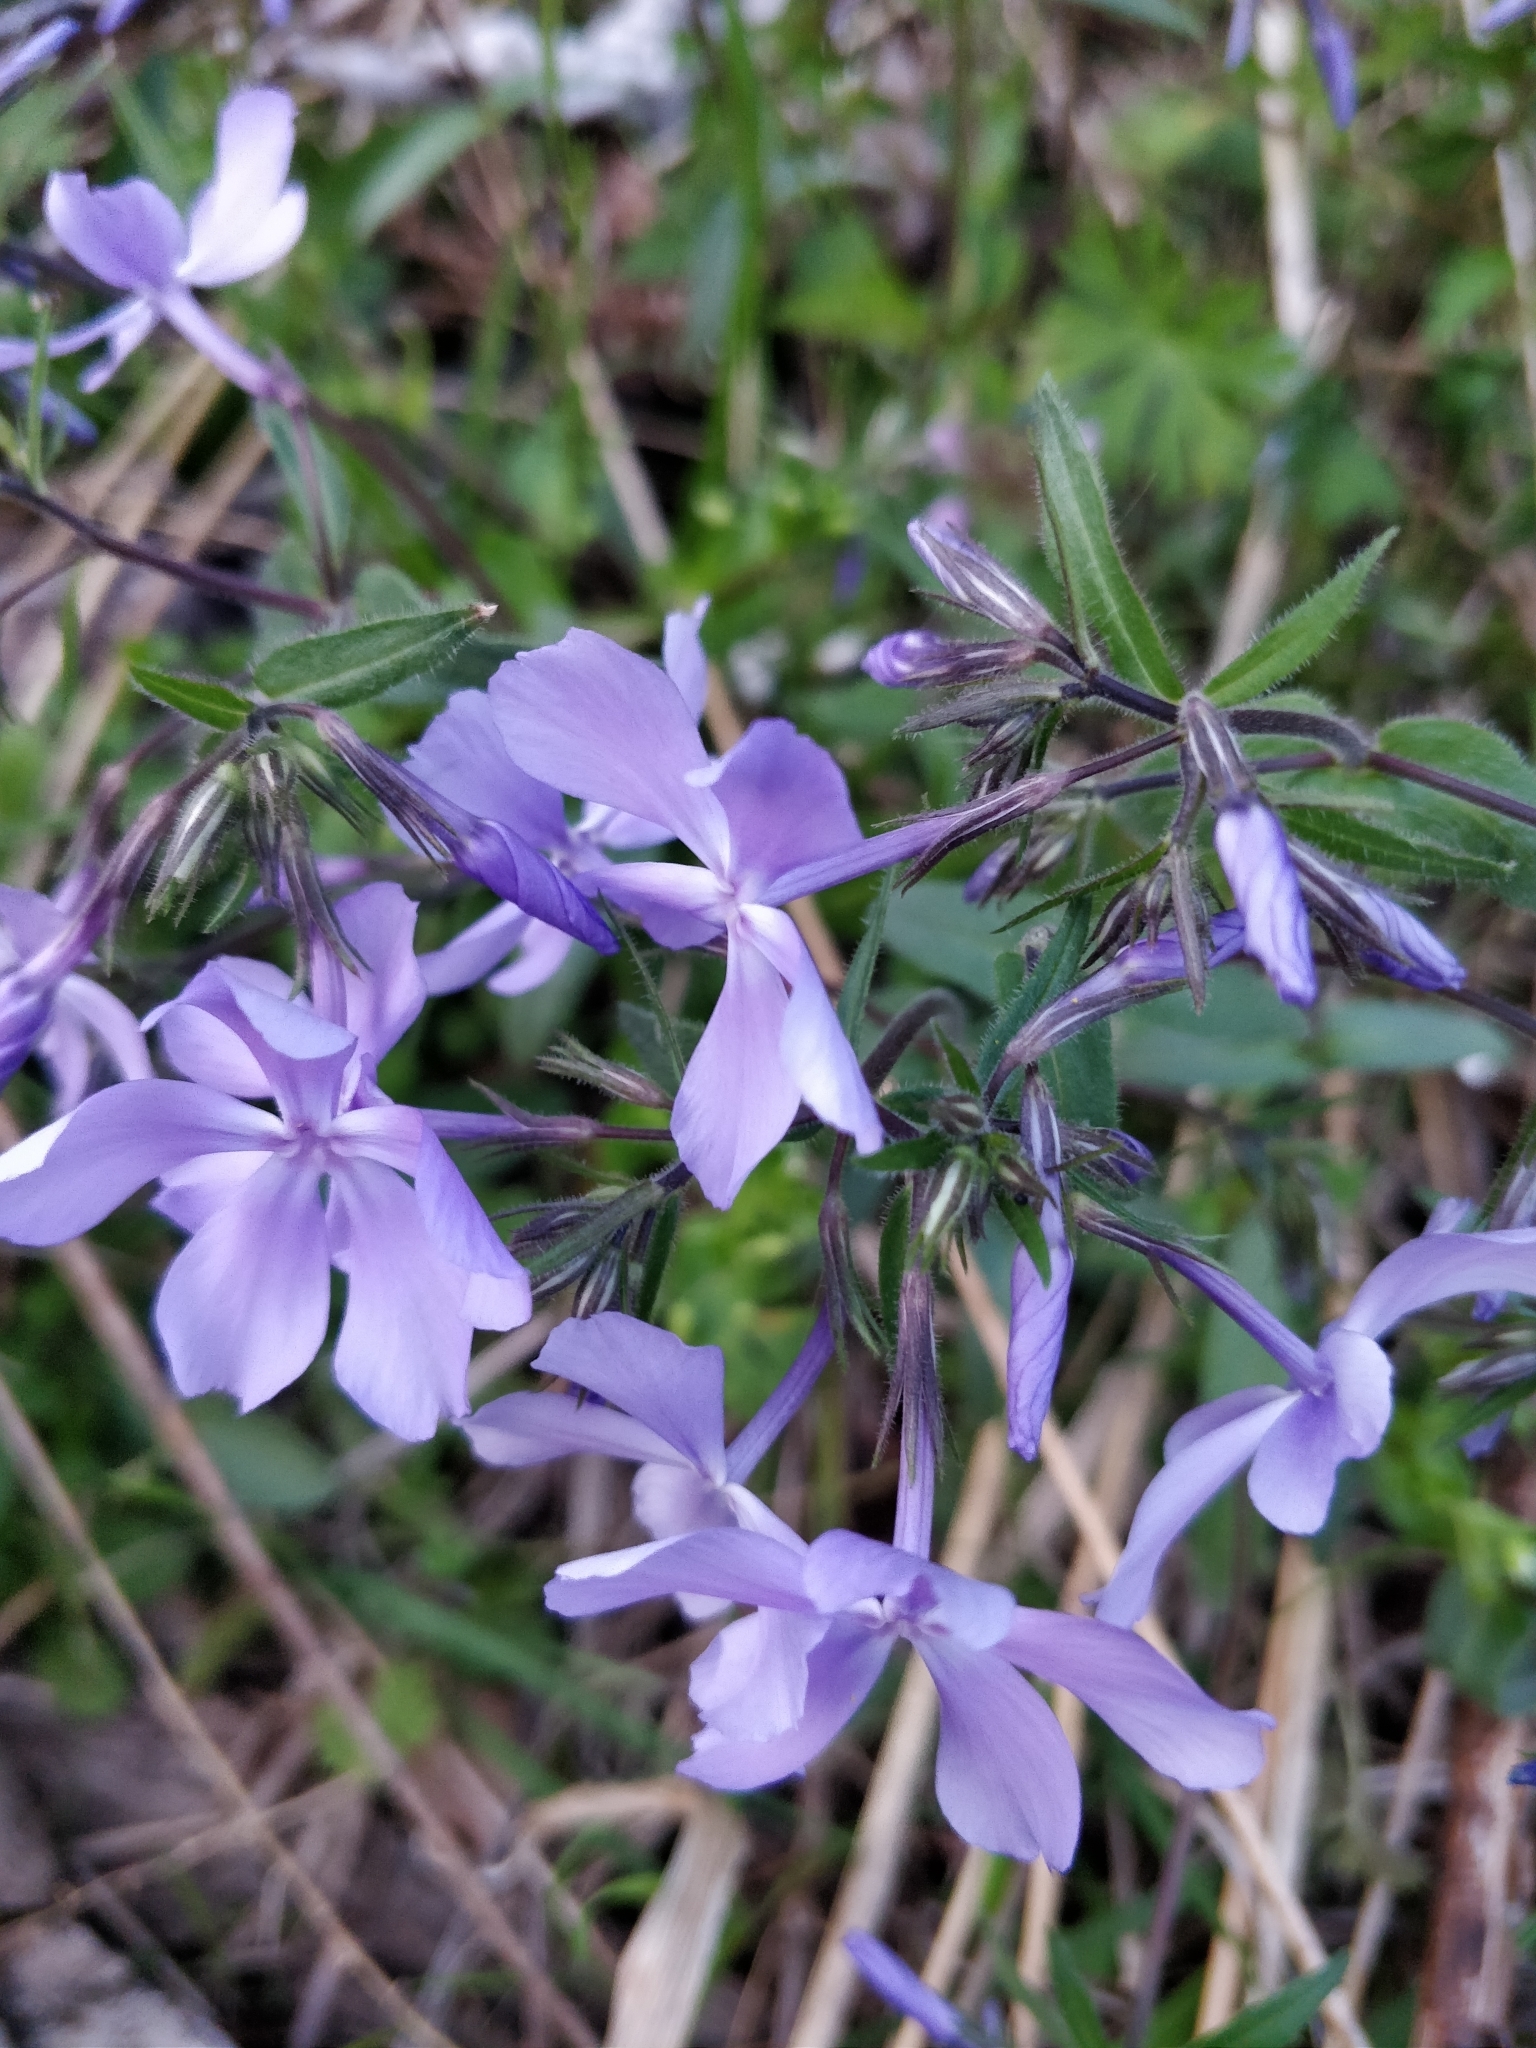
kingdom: Plantae
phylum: Tracheophyta
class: Magnoliopsida
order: Ericales
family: Polemoniaceae
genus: Phlox
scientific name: Phlox divaricata
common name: Blue phlox
